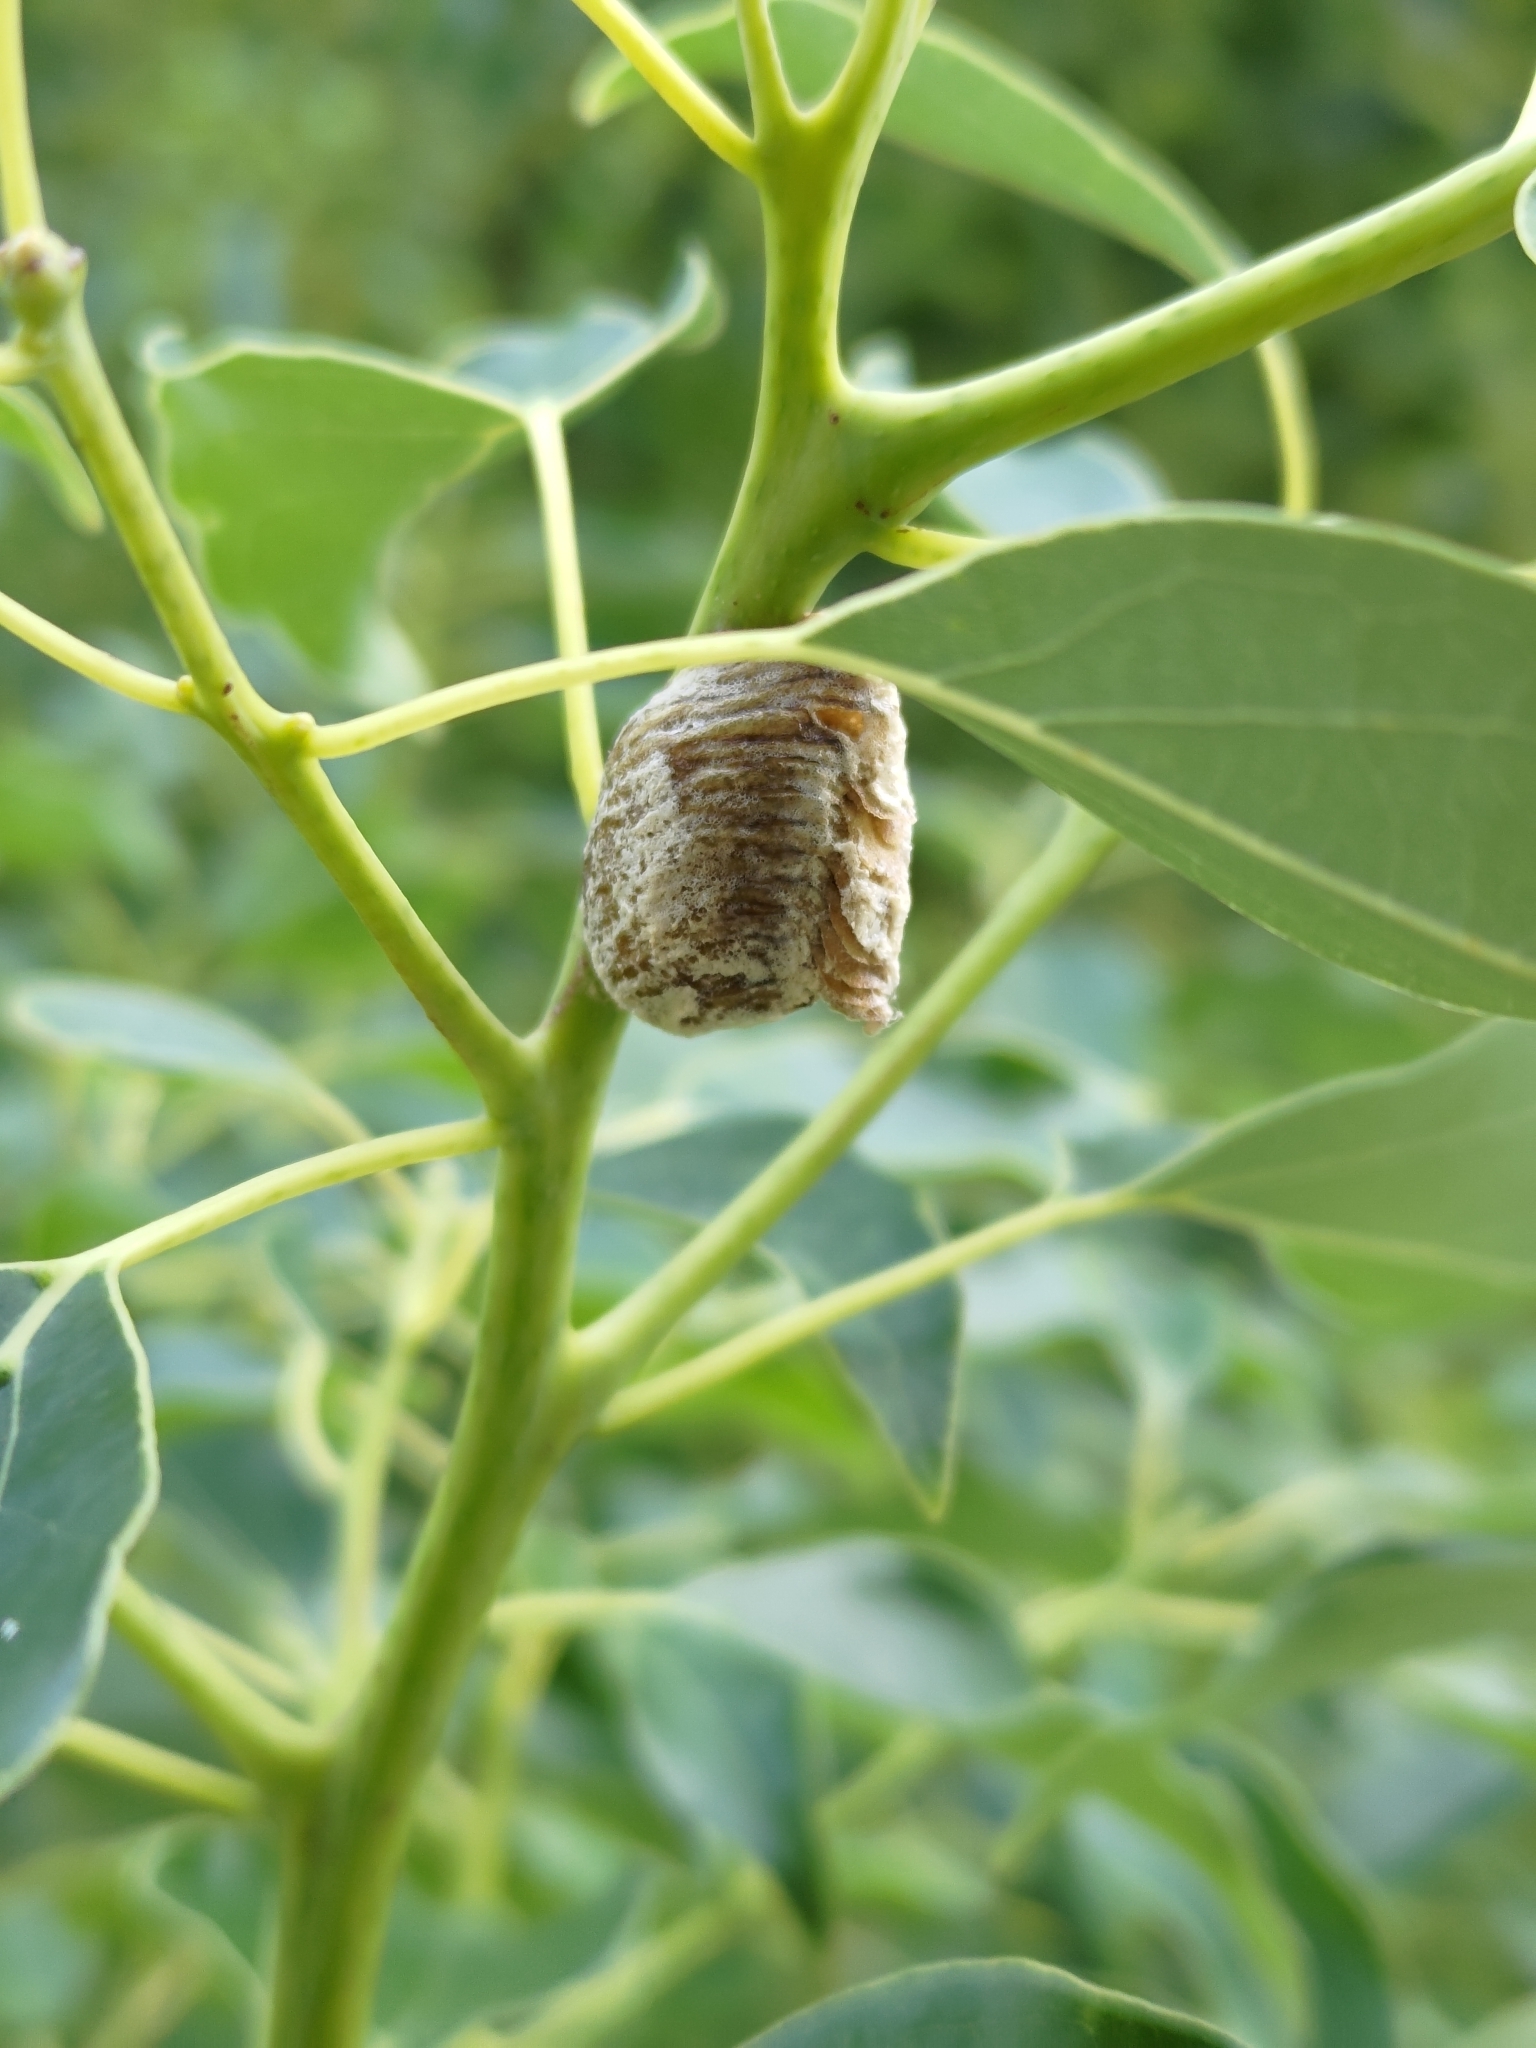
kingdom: Animalia
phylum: Arthropoda
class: Insecta
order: Mantodea
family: Mantidae
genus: Titanodula
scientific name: Titanodula formosana
